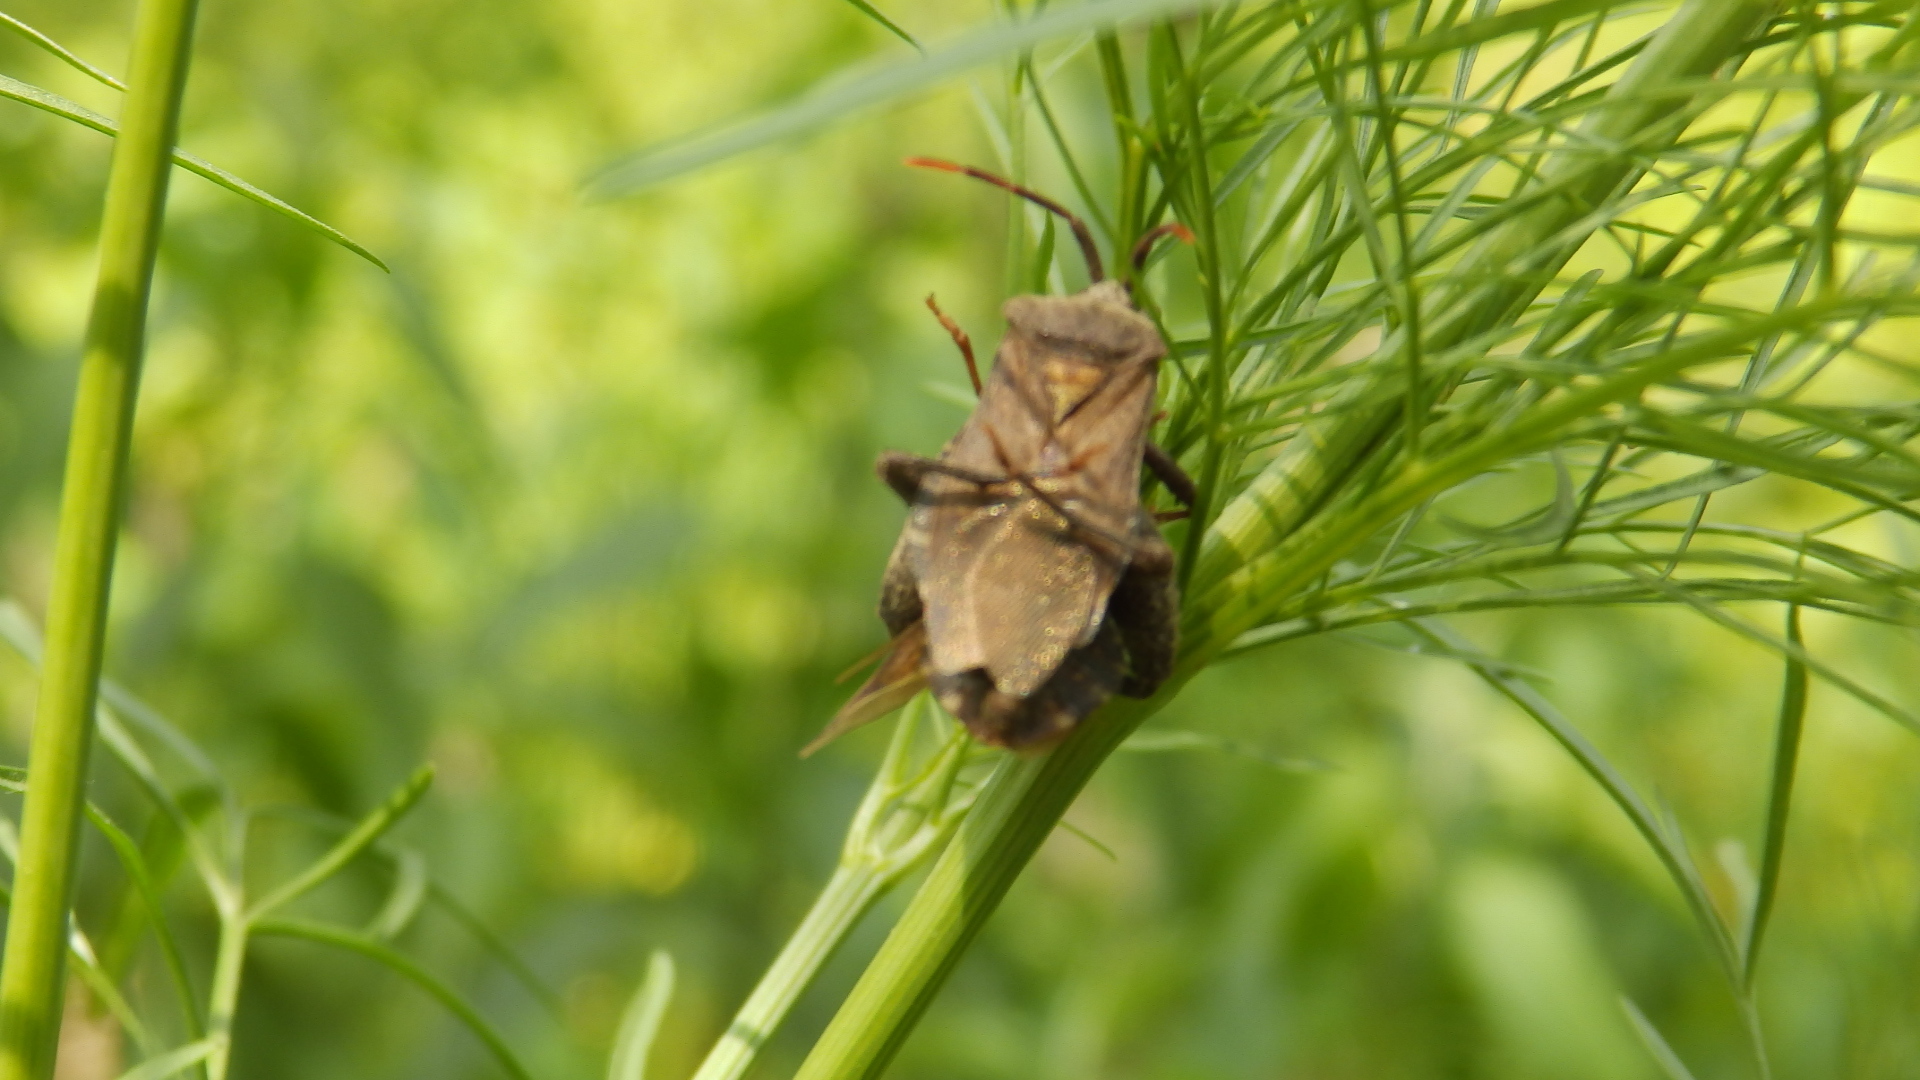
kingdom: Animalia
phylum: Arthropoda
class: Insecta
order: Hemiptera
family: Coreidae
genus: Piezogaster
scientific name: Piezogaster calcarator
